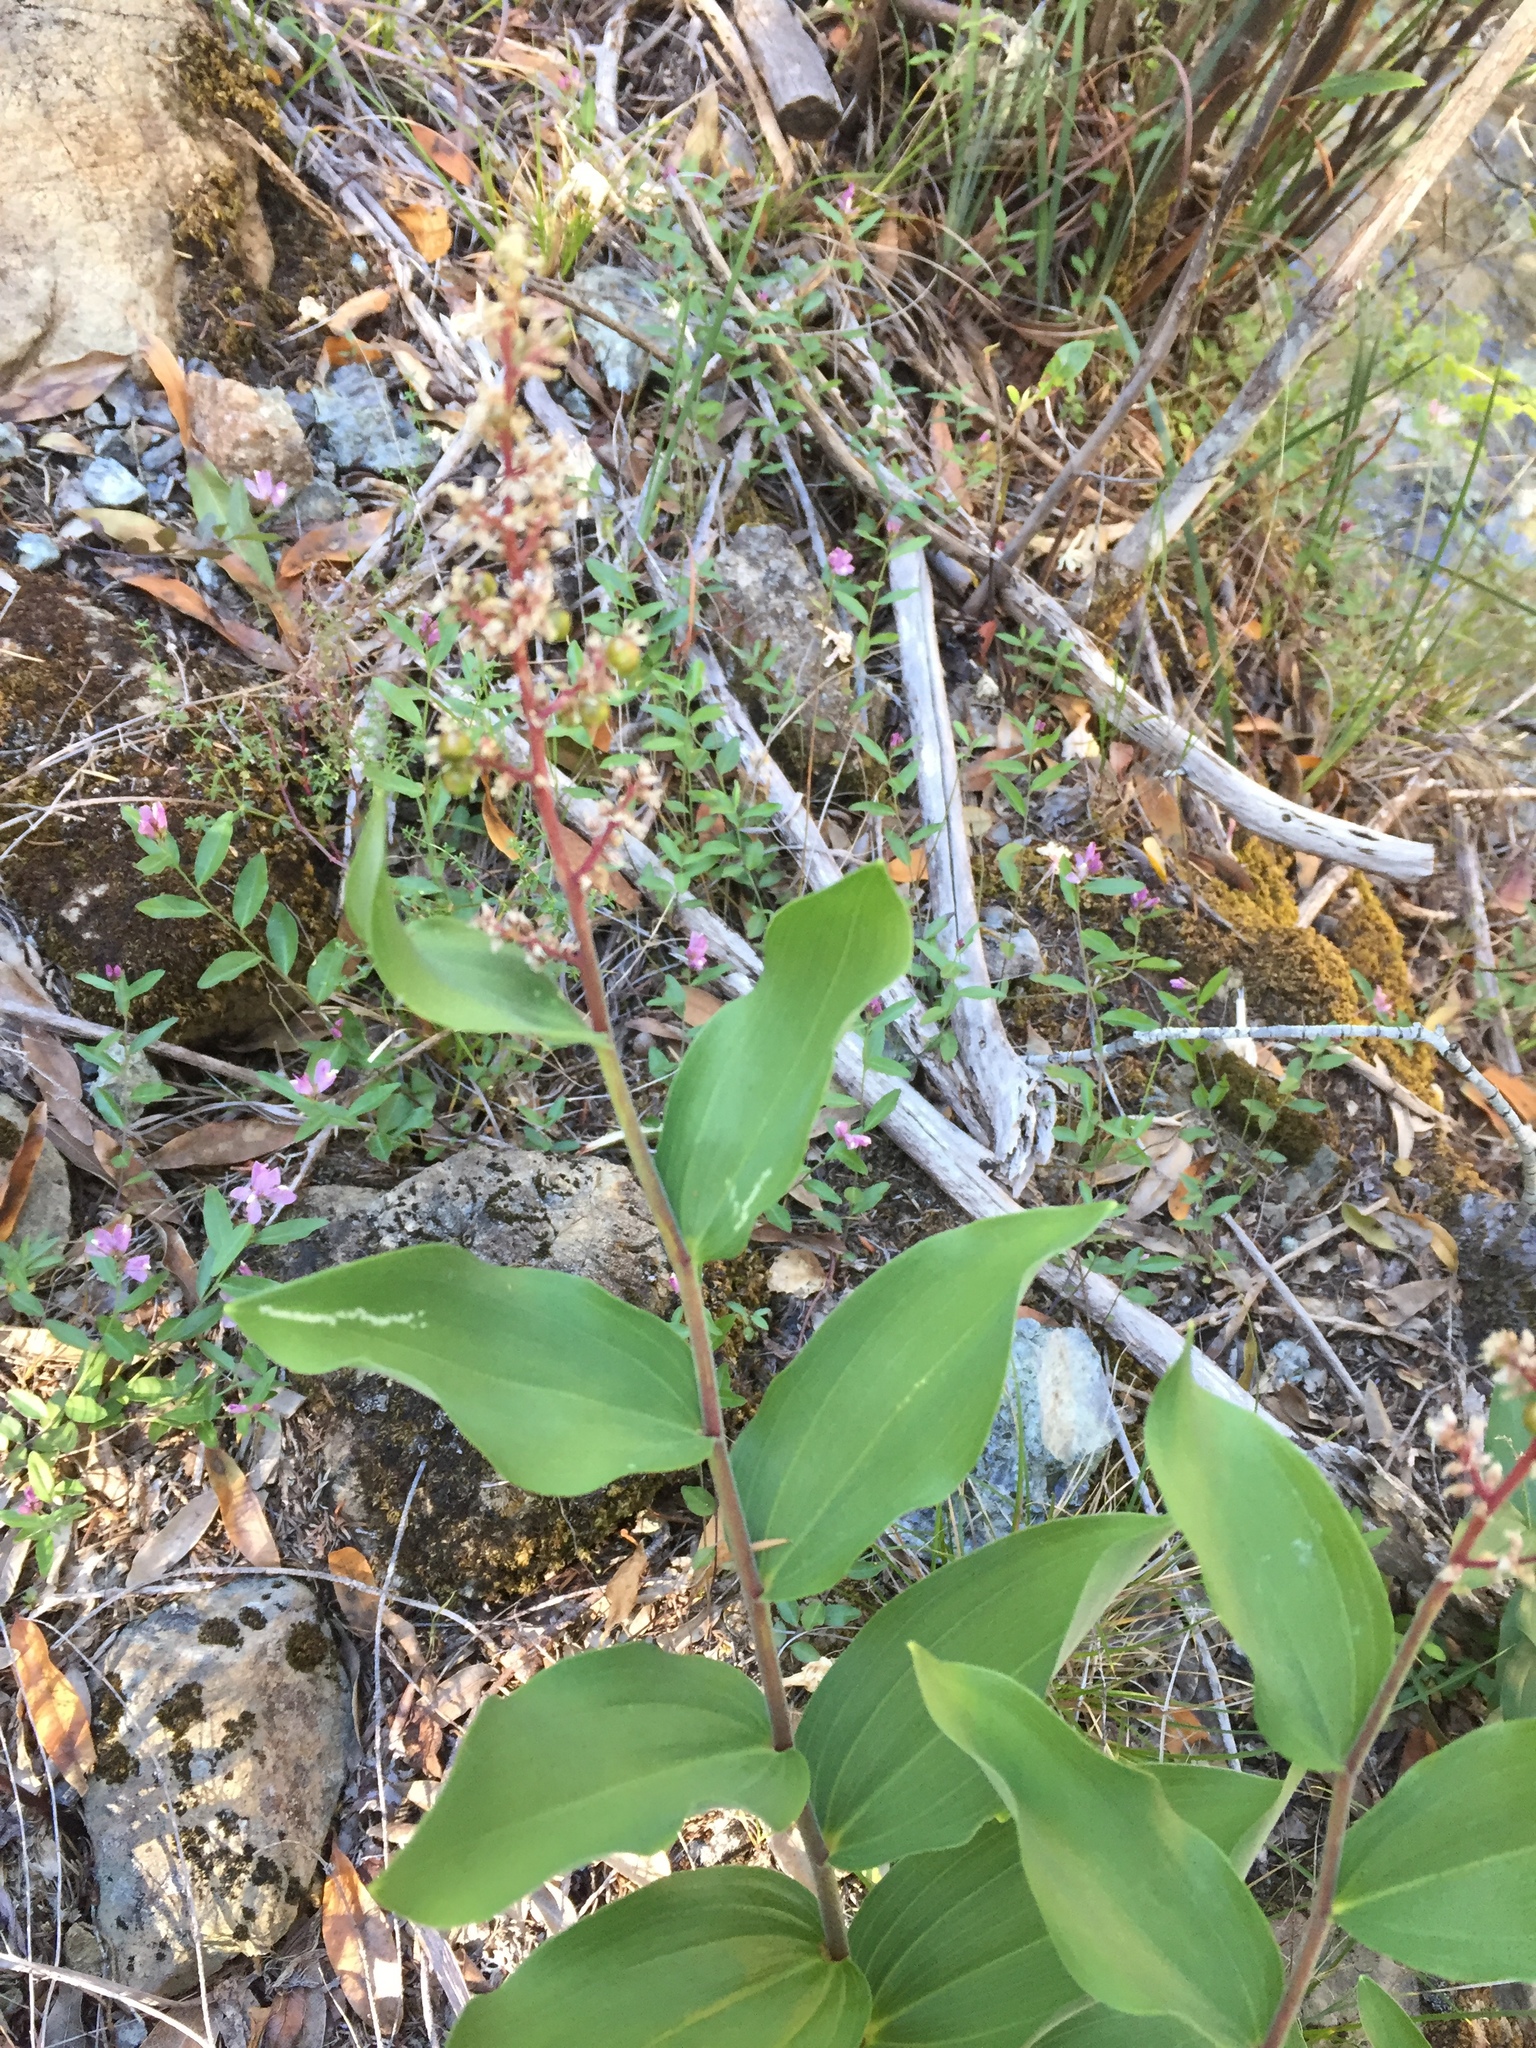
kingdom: Plantae
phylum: Tracheophyta
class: Liliopsida
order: Asparagales
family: Asparagaceae
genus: Maianthemum
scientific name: Maianthemum racemosum
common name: False spikenard
